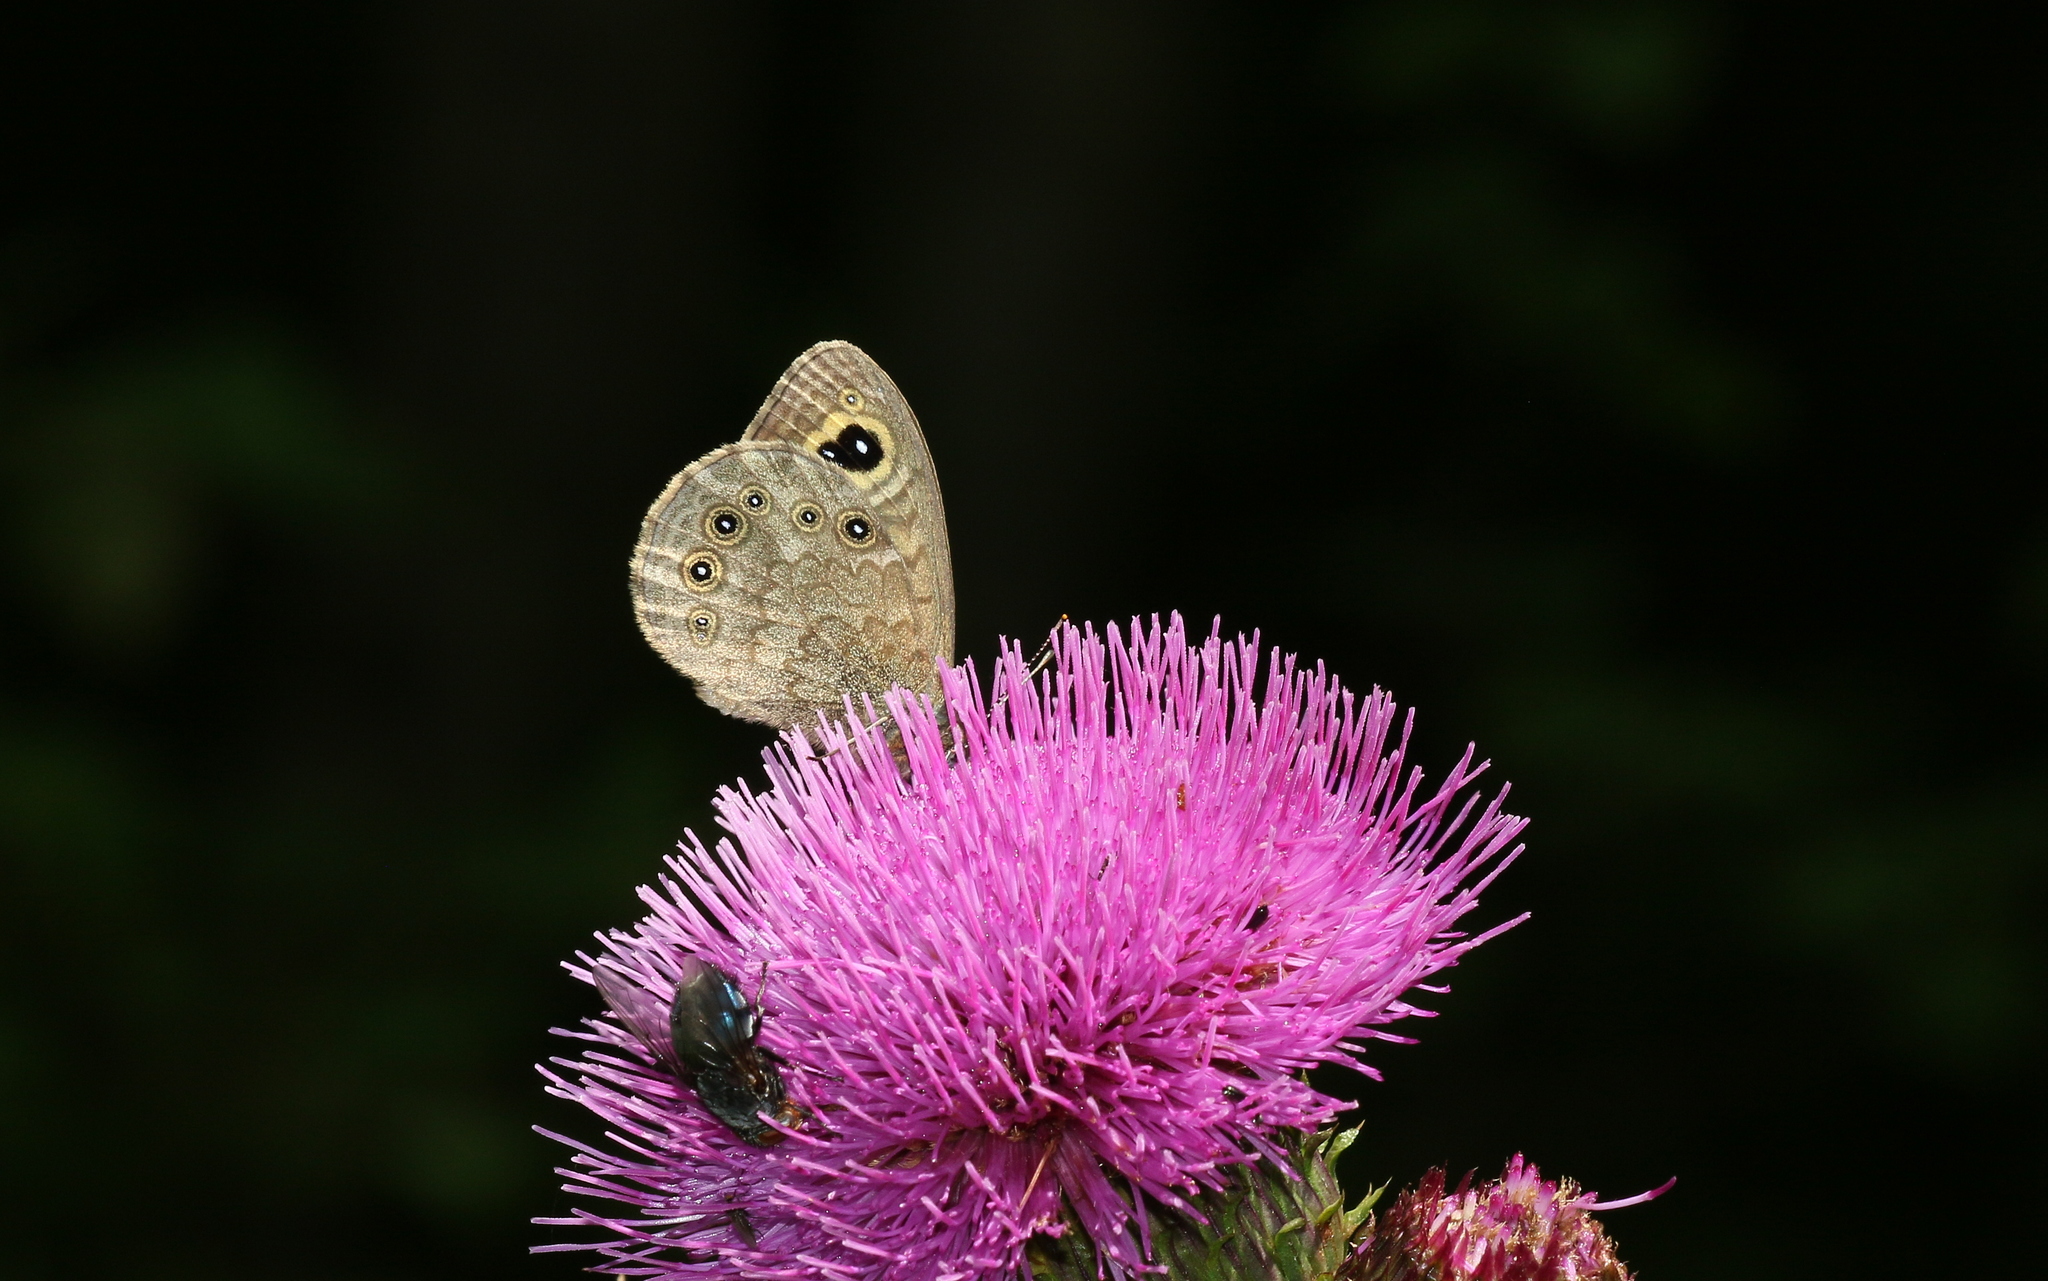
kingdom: Animalia
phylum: Arthropoda
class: Insecta
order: Lepidoptera
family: Nymphalidae
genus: Pararge
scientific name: Pararge Lasiommata megera
